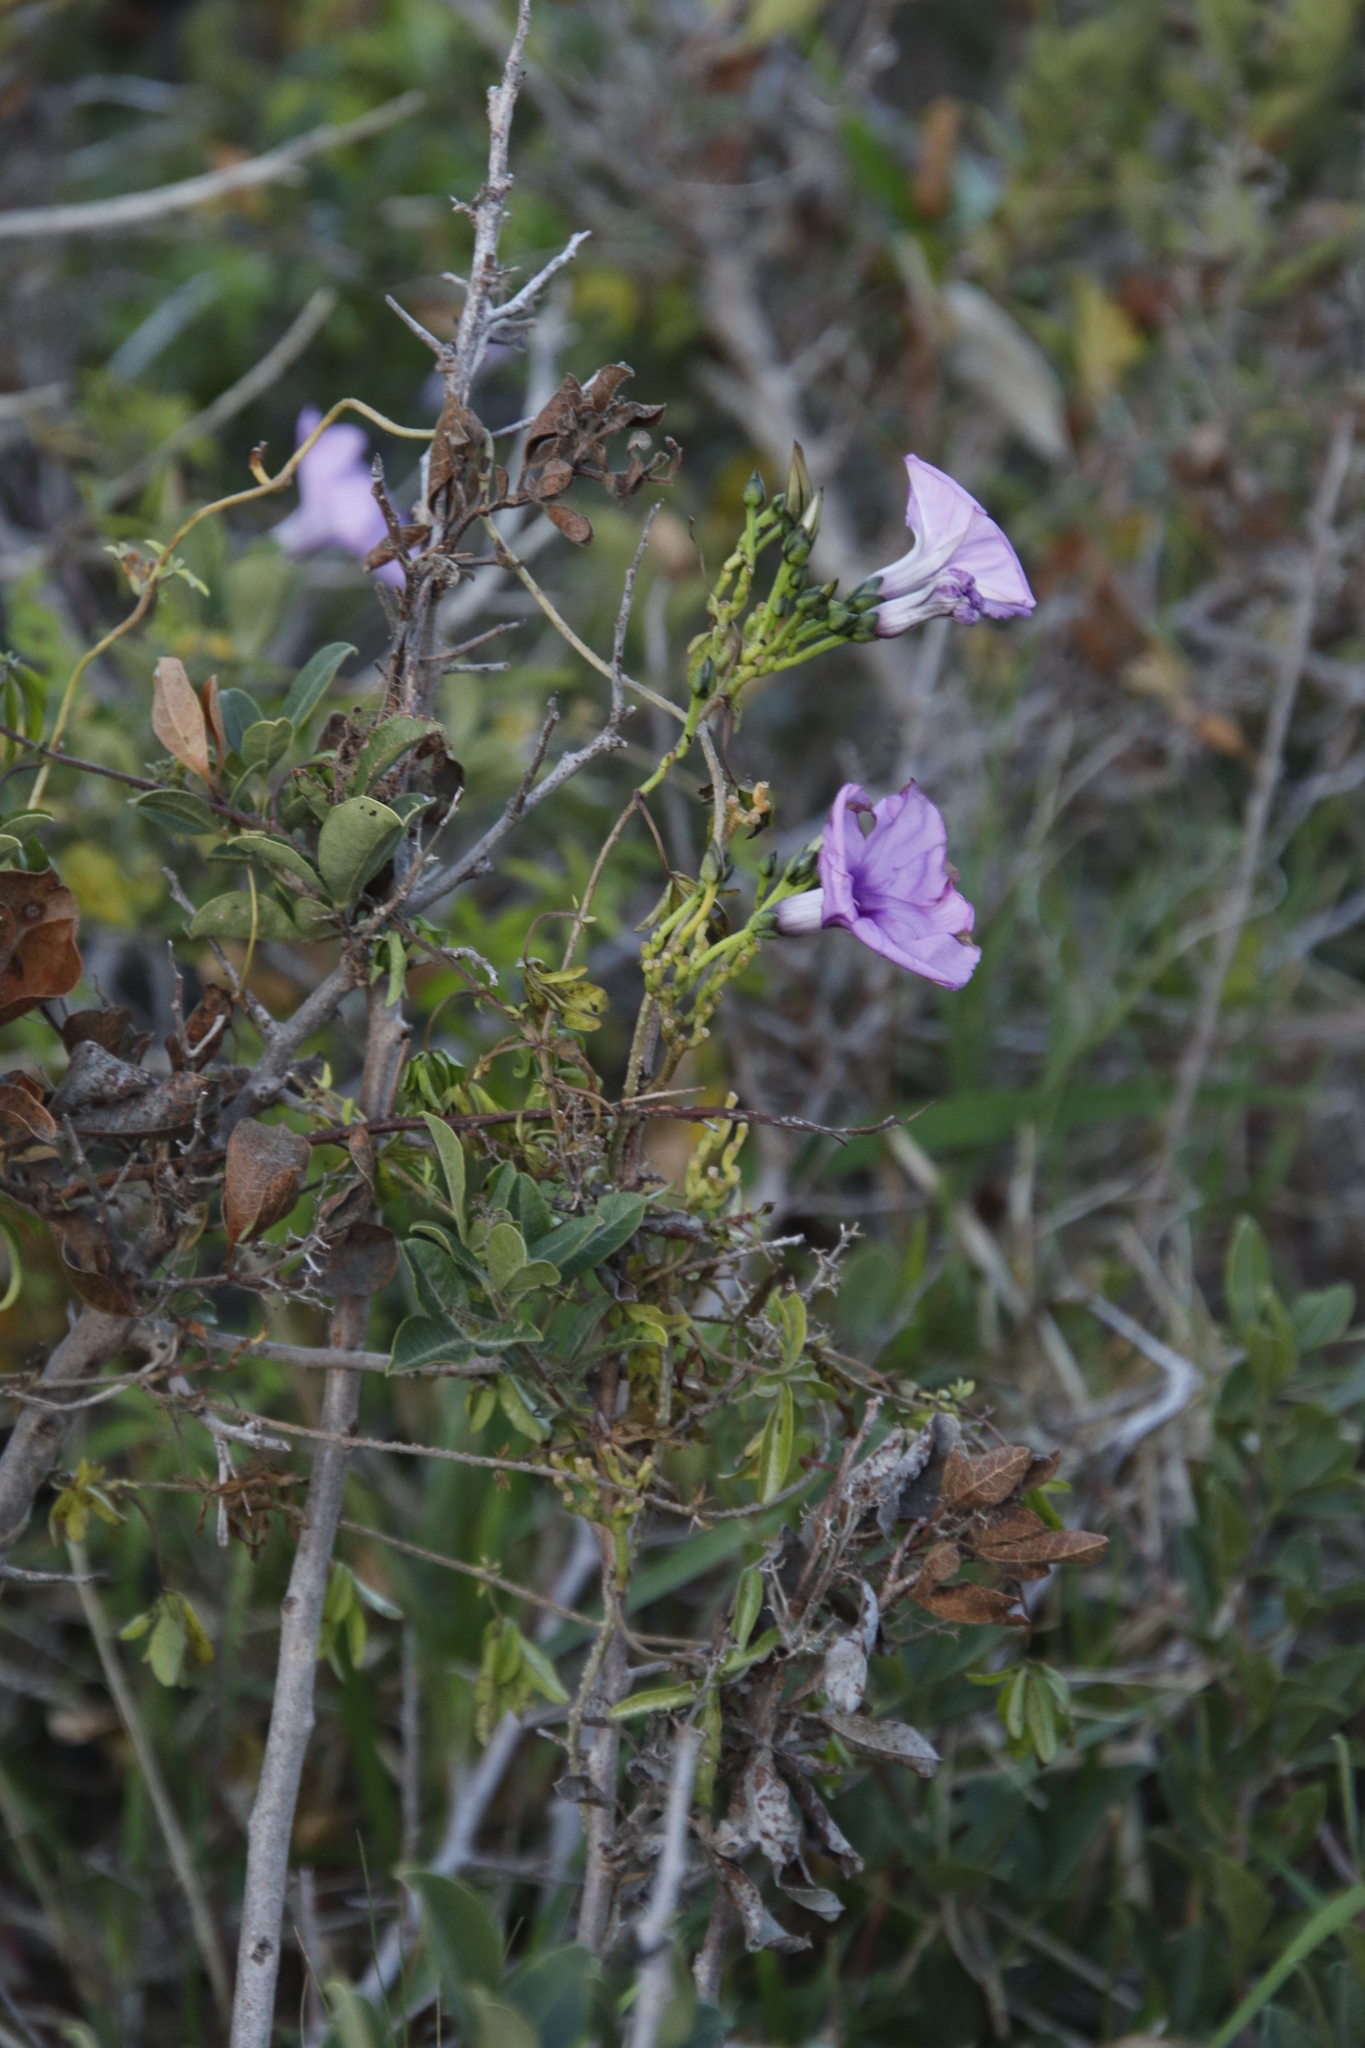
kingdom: Plantae
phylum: Tracheophyta
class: Magnoliopsida
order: Solanales
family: Convolvulaceae
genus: Ipomoea
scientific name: Ipomoea cairica
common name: Mile a minute vine
